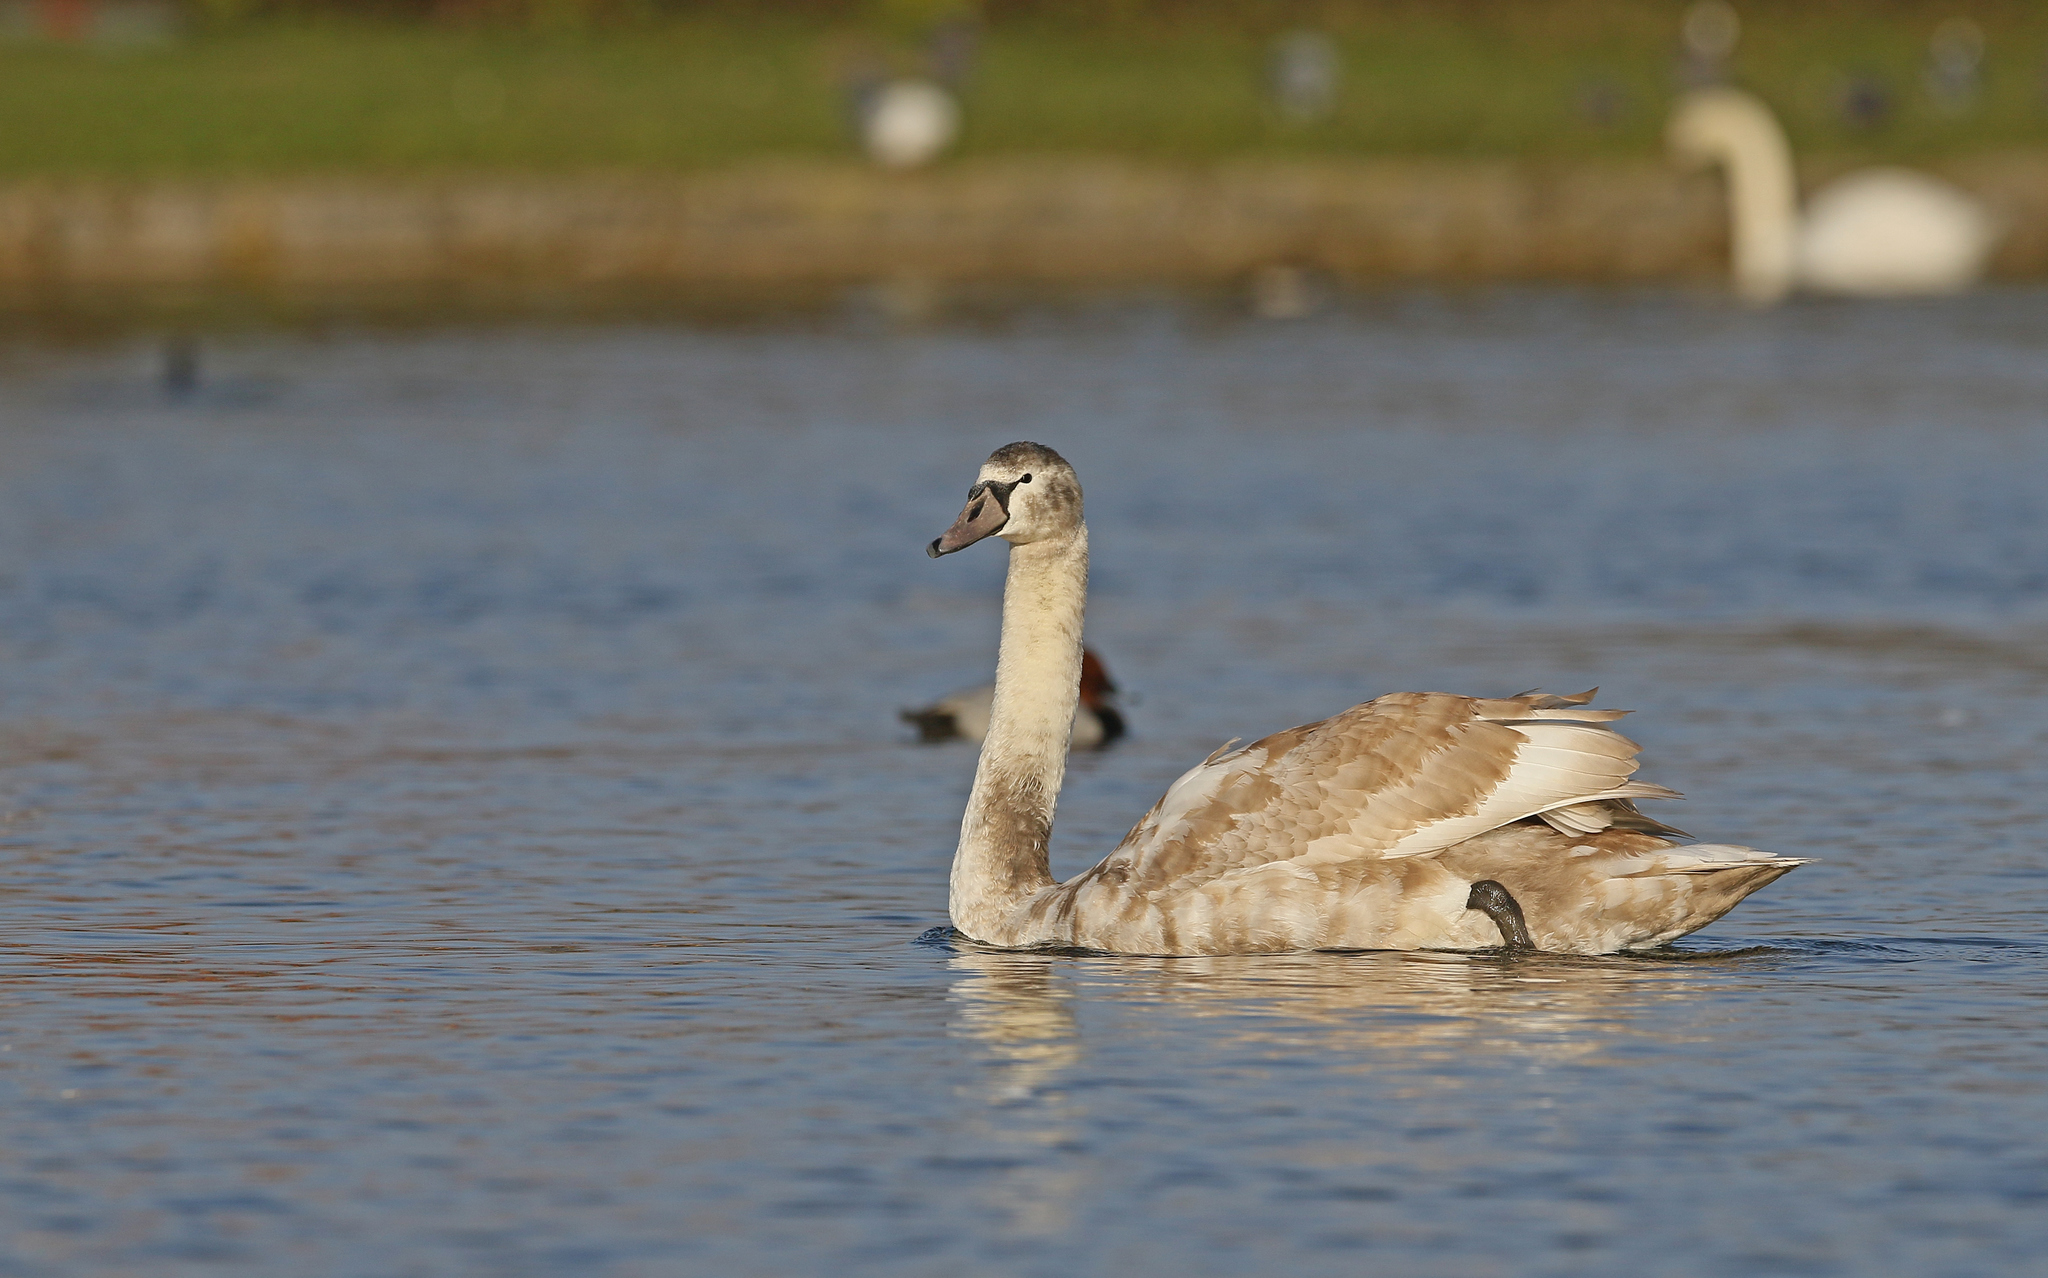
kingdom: Animalia
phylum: Chordata
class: Aves
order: Anseriformes
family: Anatidae
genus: Cygnus
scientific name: Cygnus olor
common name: Mute swan
